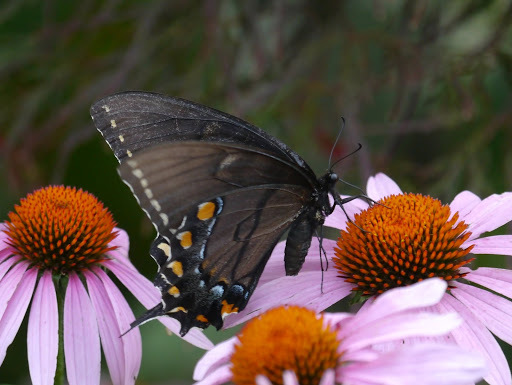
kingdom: Animalia
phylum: Arthropoda
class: Insecta
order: Lepidoptera
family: Papilionidae
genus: Papilio
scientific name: Papilio glaucus
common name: Tiger swallowtail
